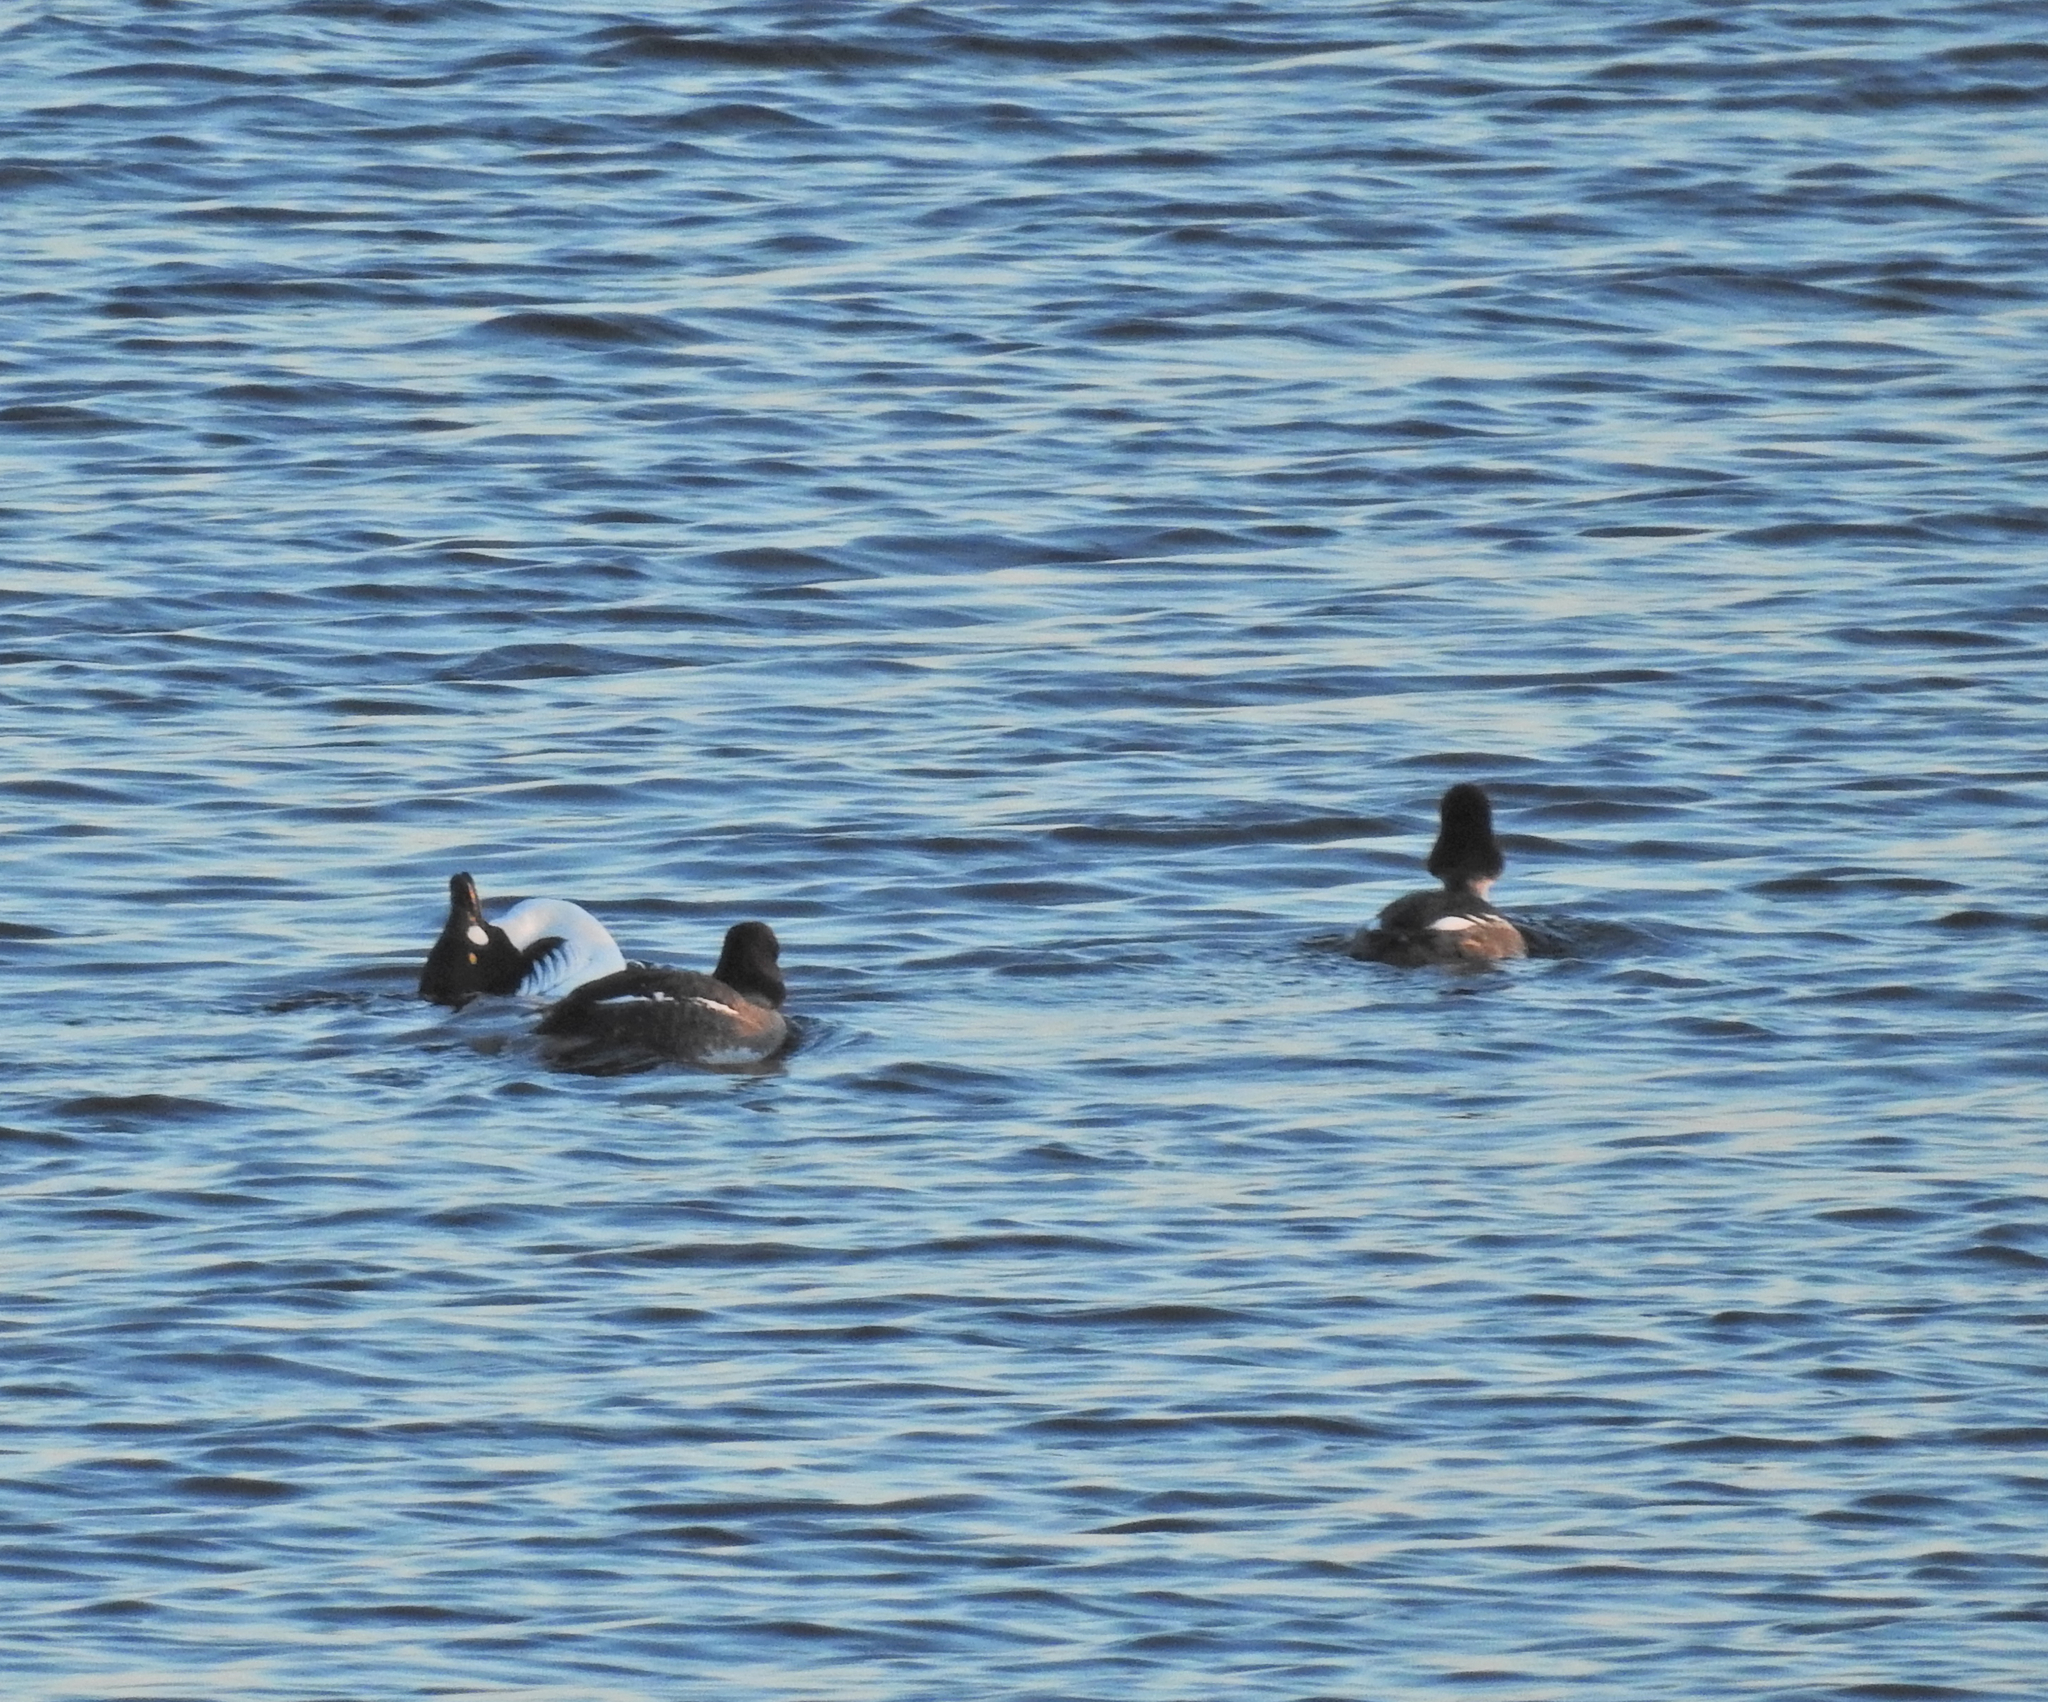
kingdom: Animalia
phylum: Chordata
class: Aves
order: Anseriformes
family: Anatidae
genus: Bucephala
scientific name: Bucephala clangula
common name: Common goldeneye
